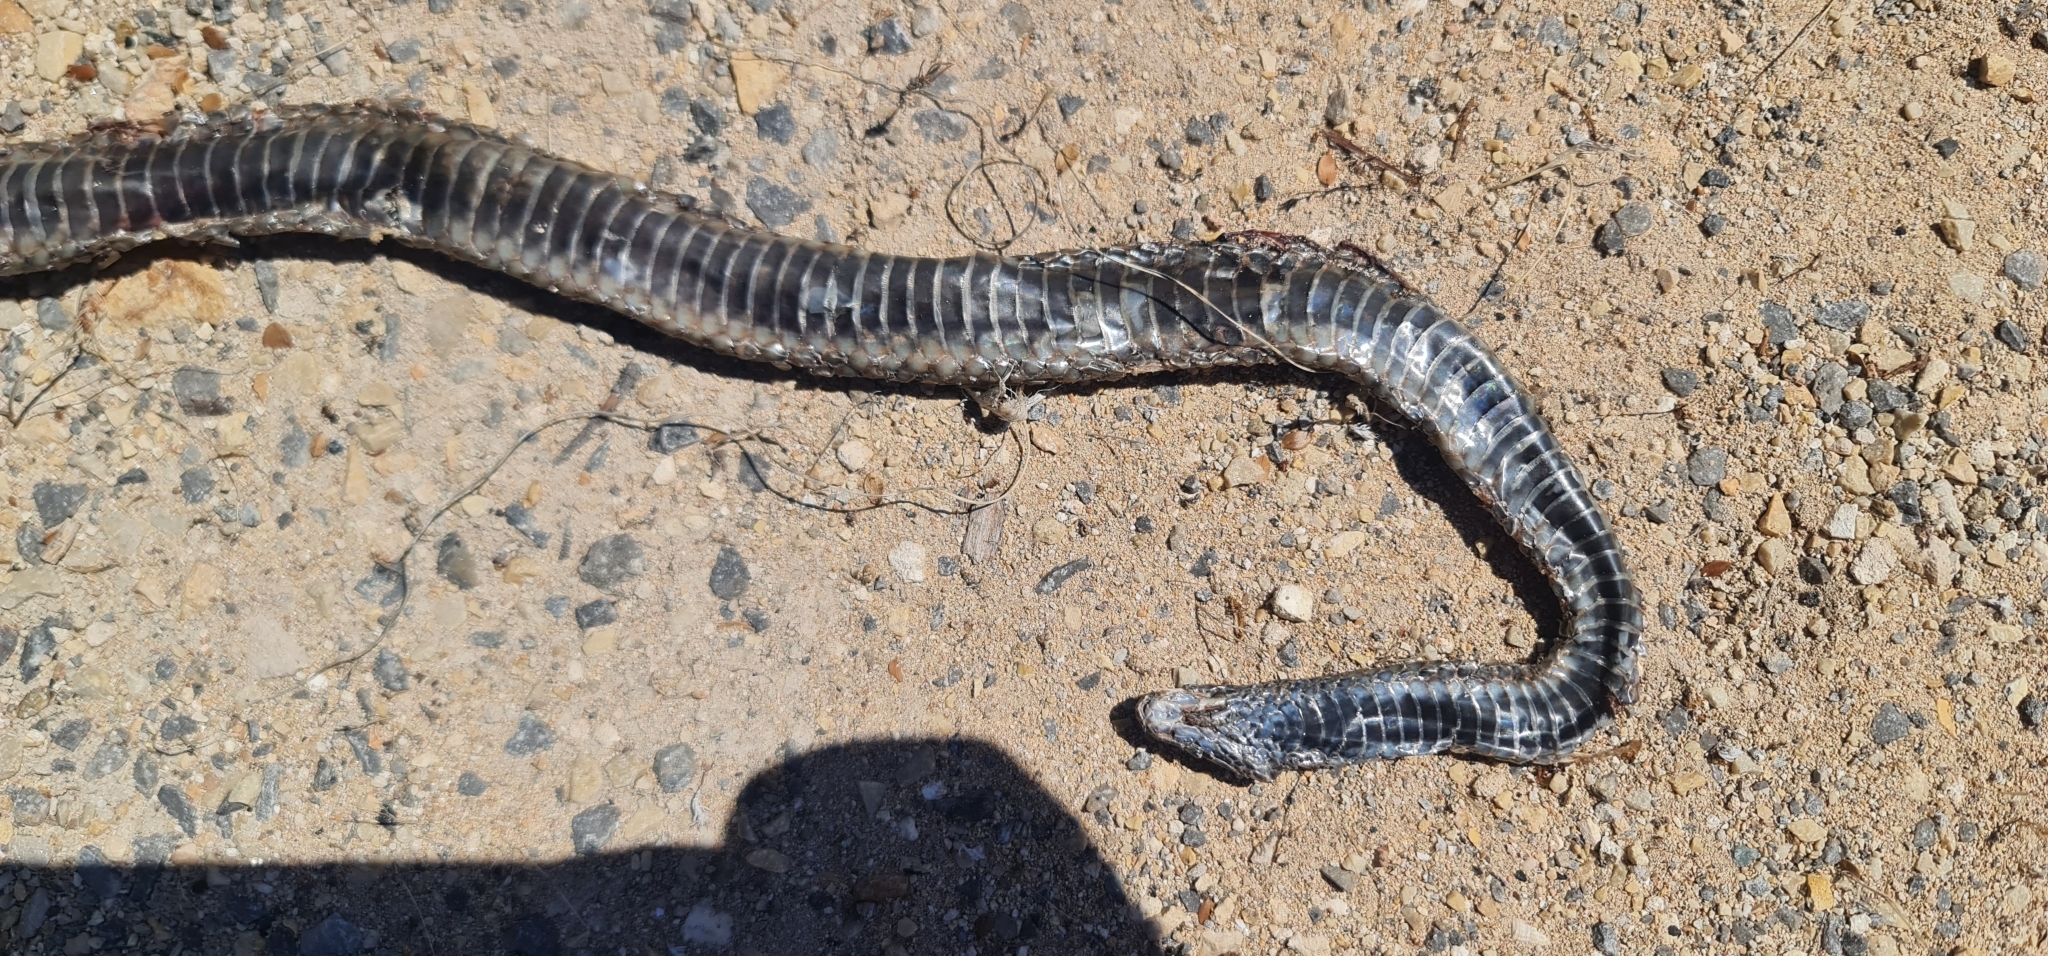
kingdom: Animalia
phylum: Chordata
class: Squamata
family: Elapidae
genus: Pseudonaja
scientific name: Pseudonaja inframacula
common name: Peninsula brown snake
